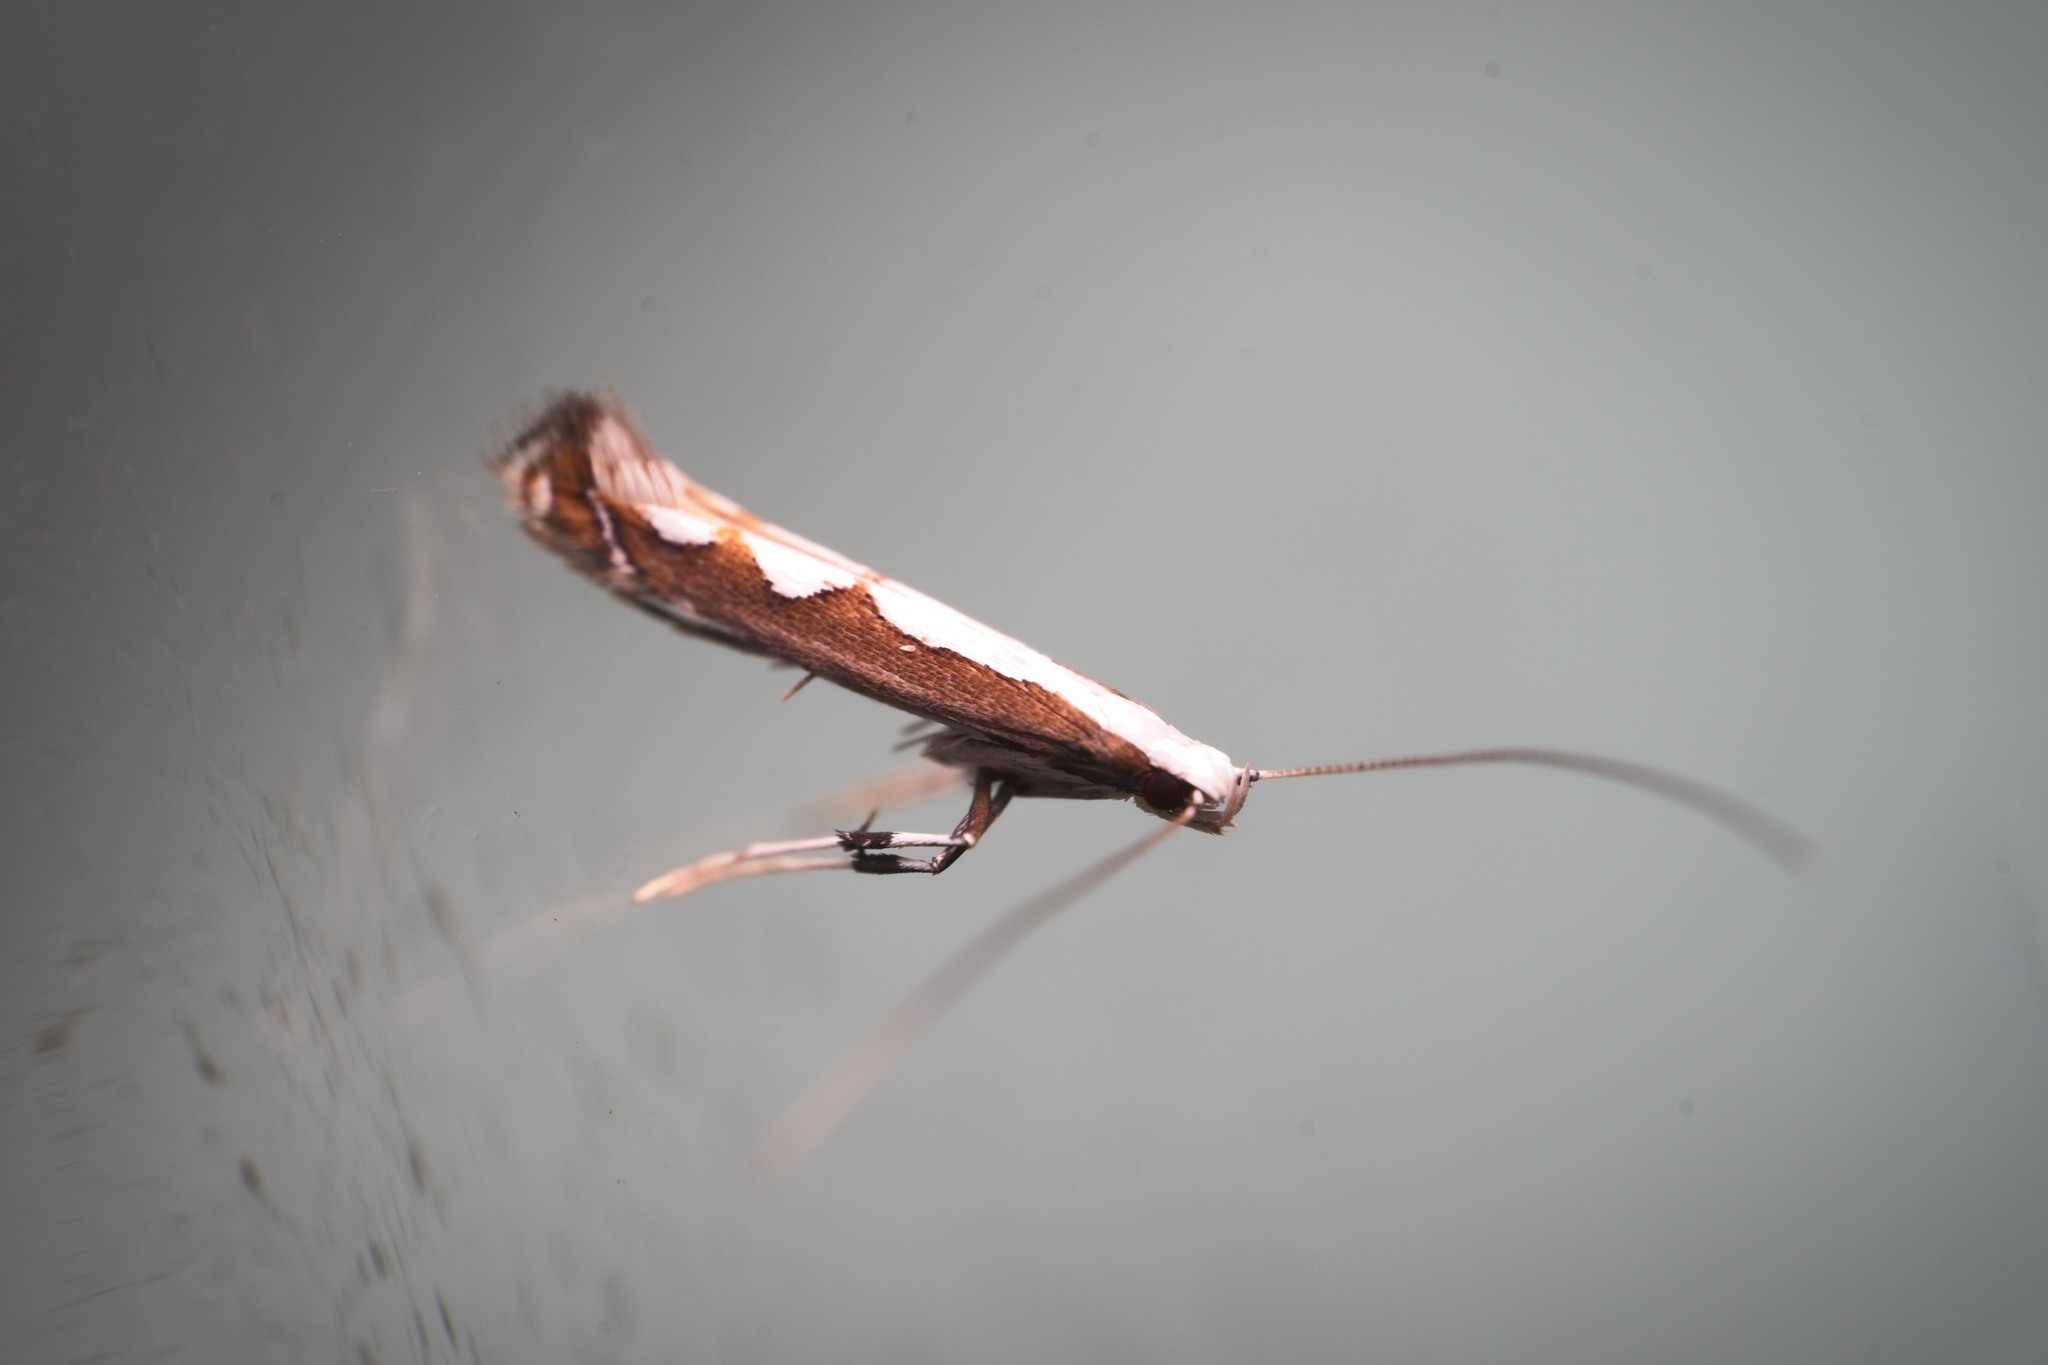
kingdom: Animalia
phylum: Arthropoda
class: Insecta
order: Lepidoptera
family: Gracillariidae
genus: Dialectica
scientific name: Dialectica scalariella
